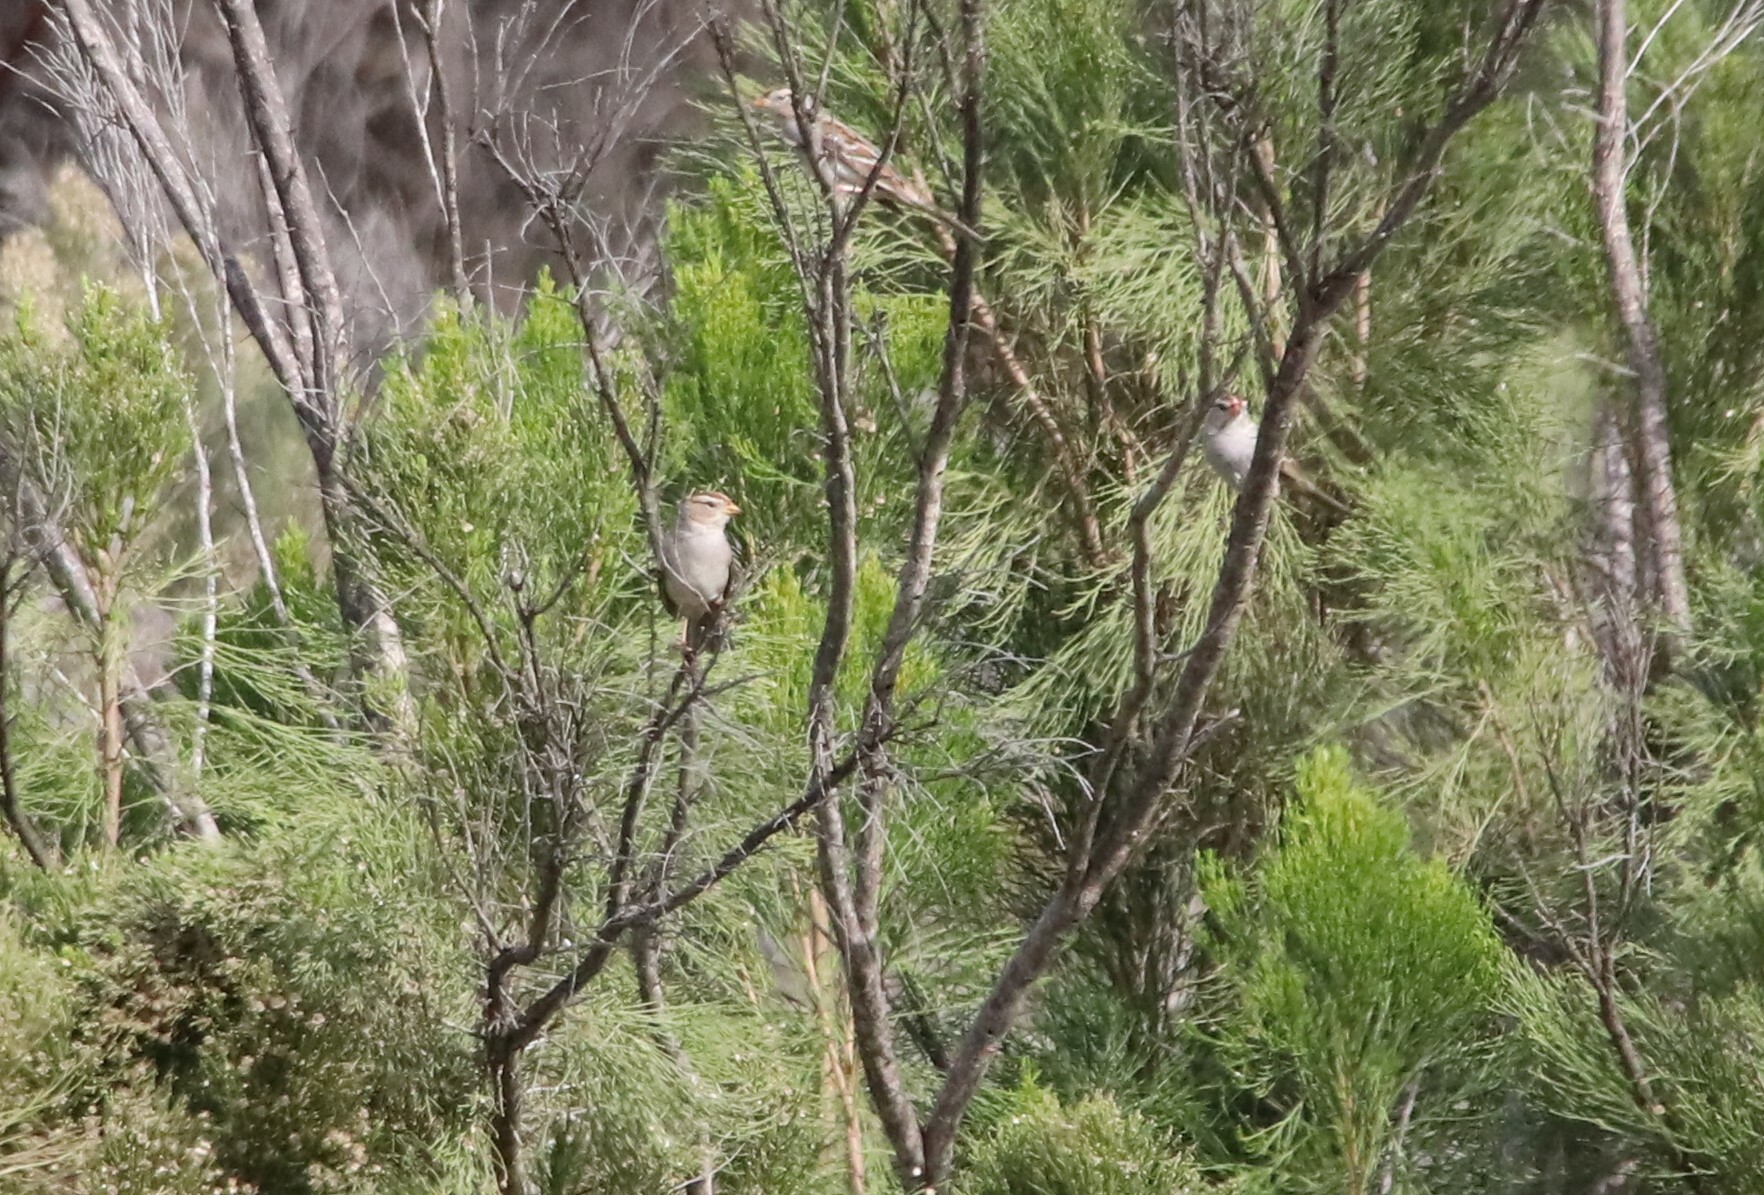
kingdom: Animalia
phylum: Chordata
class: Aves
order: Passeriformes
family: Passerellidae
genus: Zonotrichia
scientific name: Zonotrichia leucophrys
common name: White-crowned sparrow
